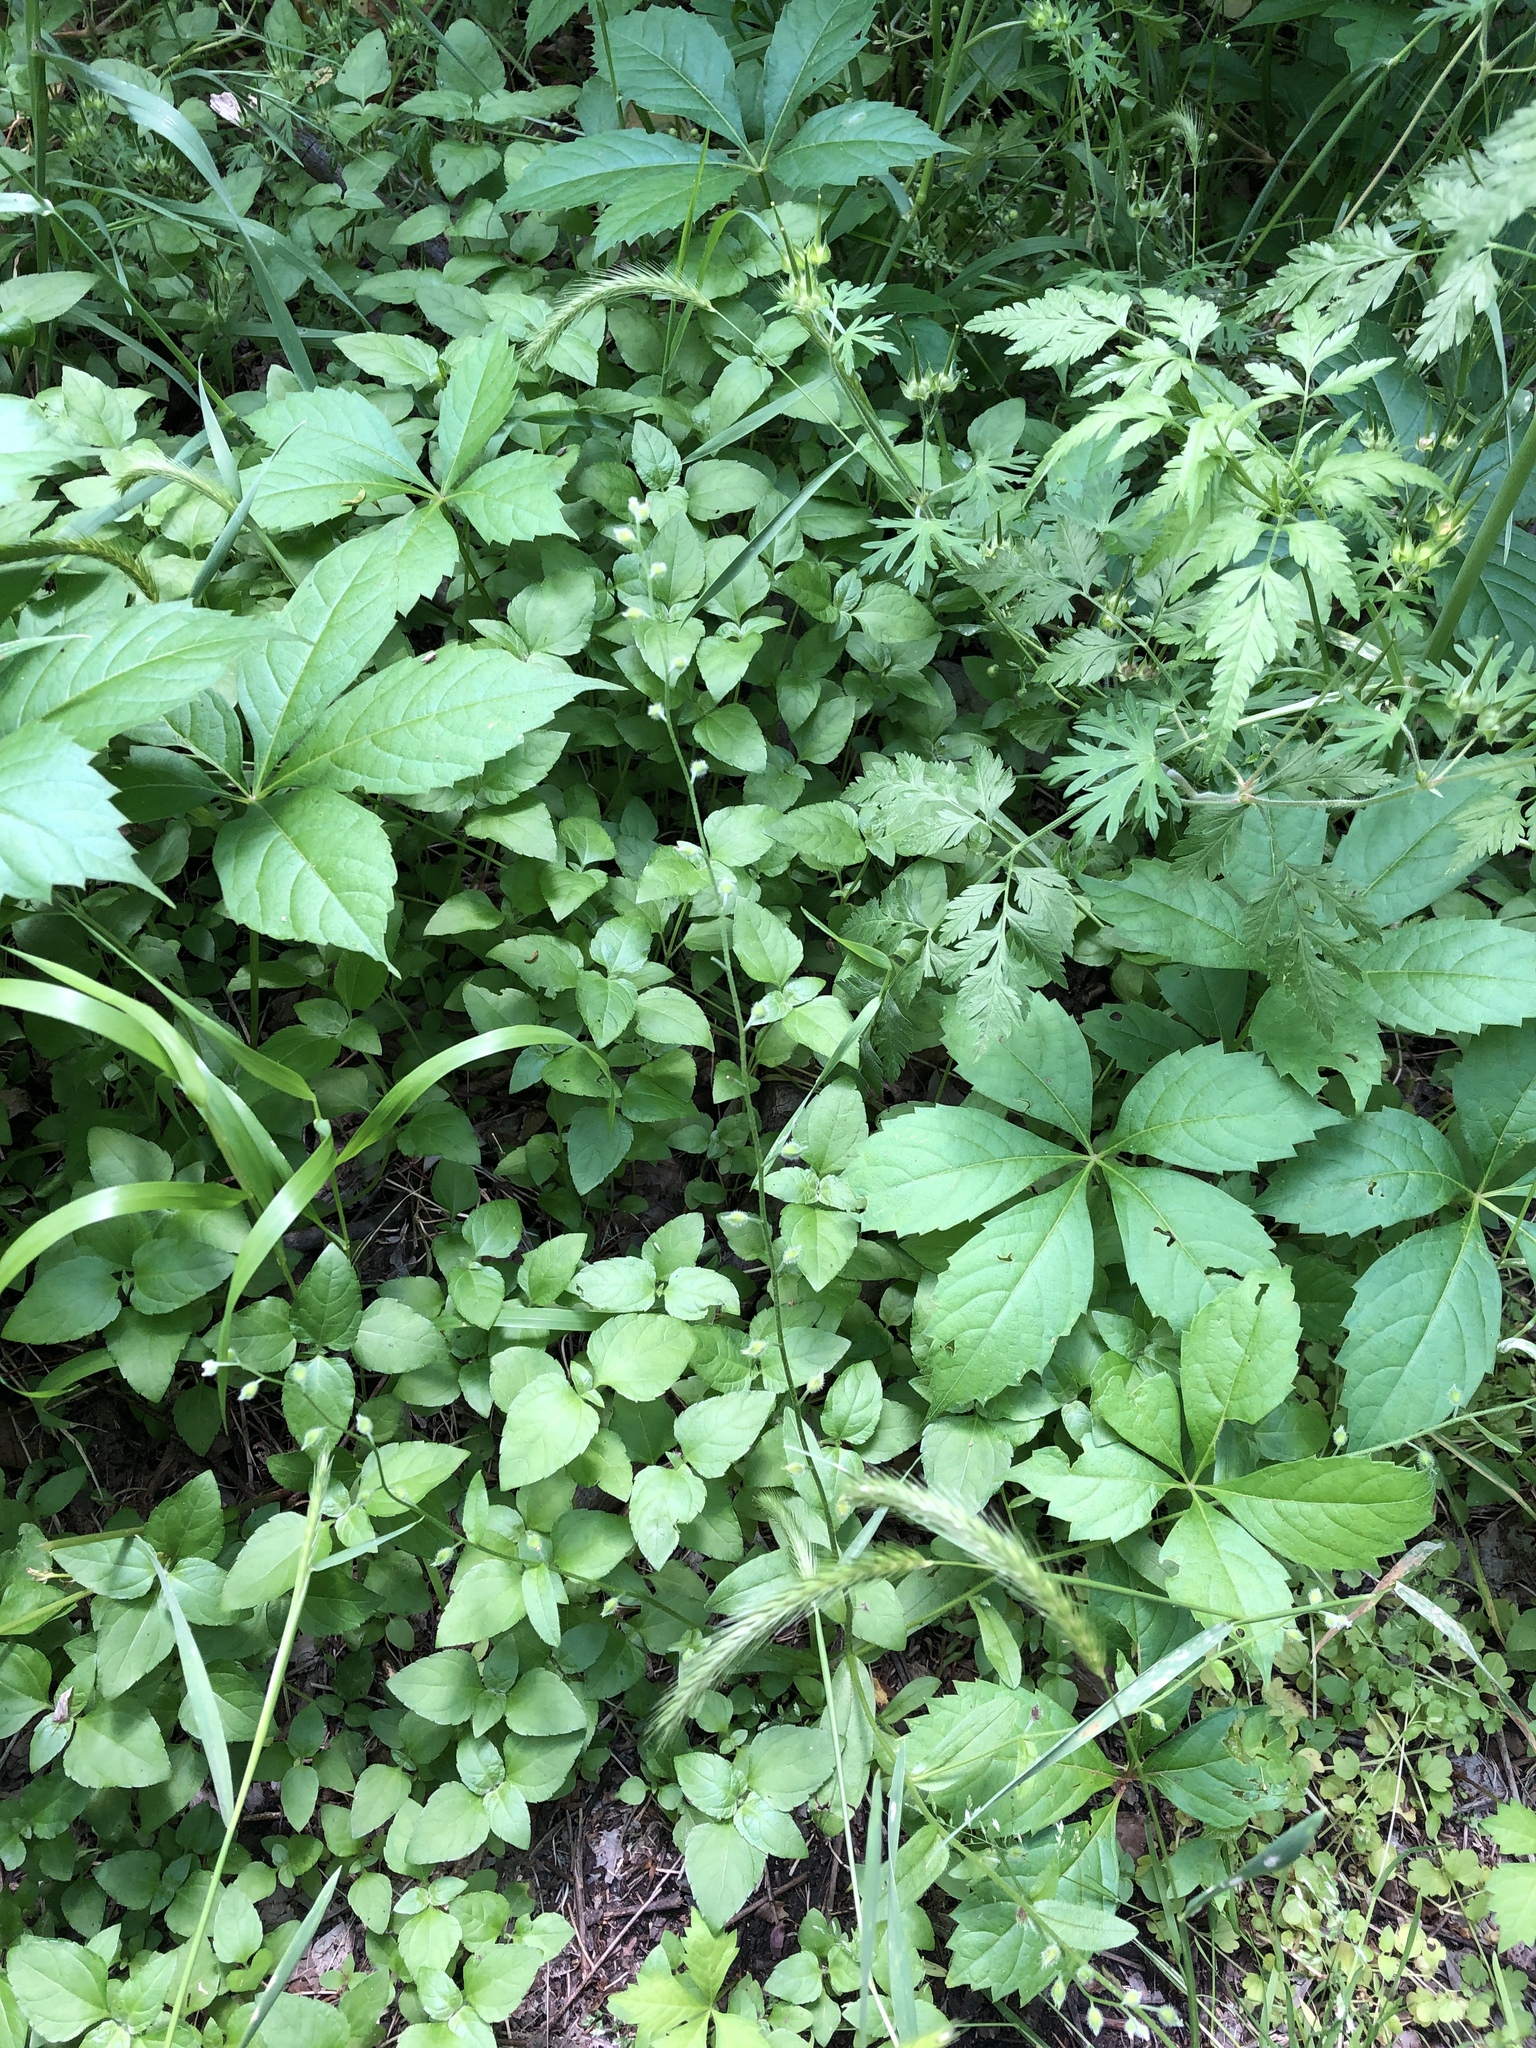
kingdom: Plantae
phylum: Tracheophyta
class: Magnoliopsida
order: Boraginales
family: Boraginaceae
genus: Myosotis
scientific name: Myosotis macrosperma
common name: Large-seed forget-me-not
